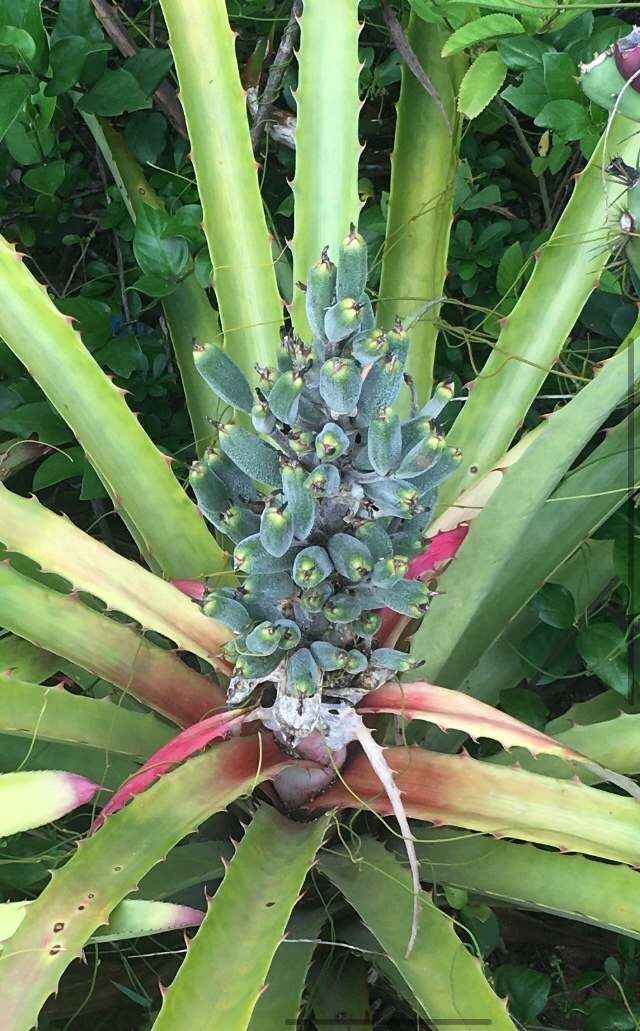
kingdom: Plantae
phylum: Tracheophyta
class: Liliopsida
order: Poales
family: Bromeliaceae
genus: Bromelia
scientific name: Bromelia antiacantha
